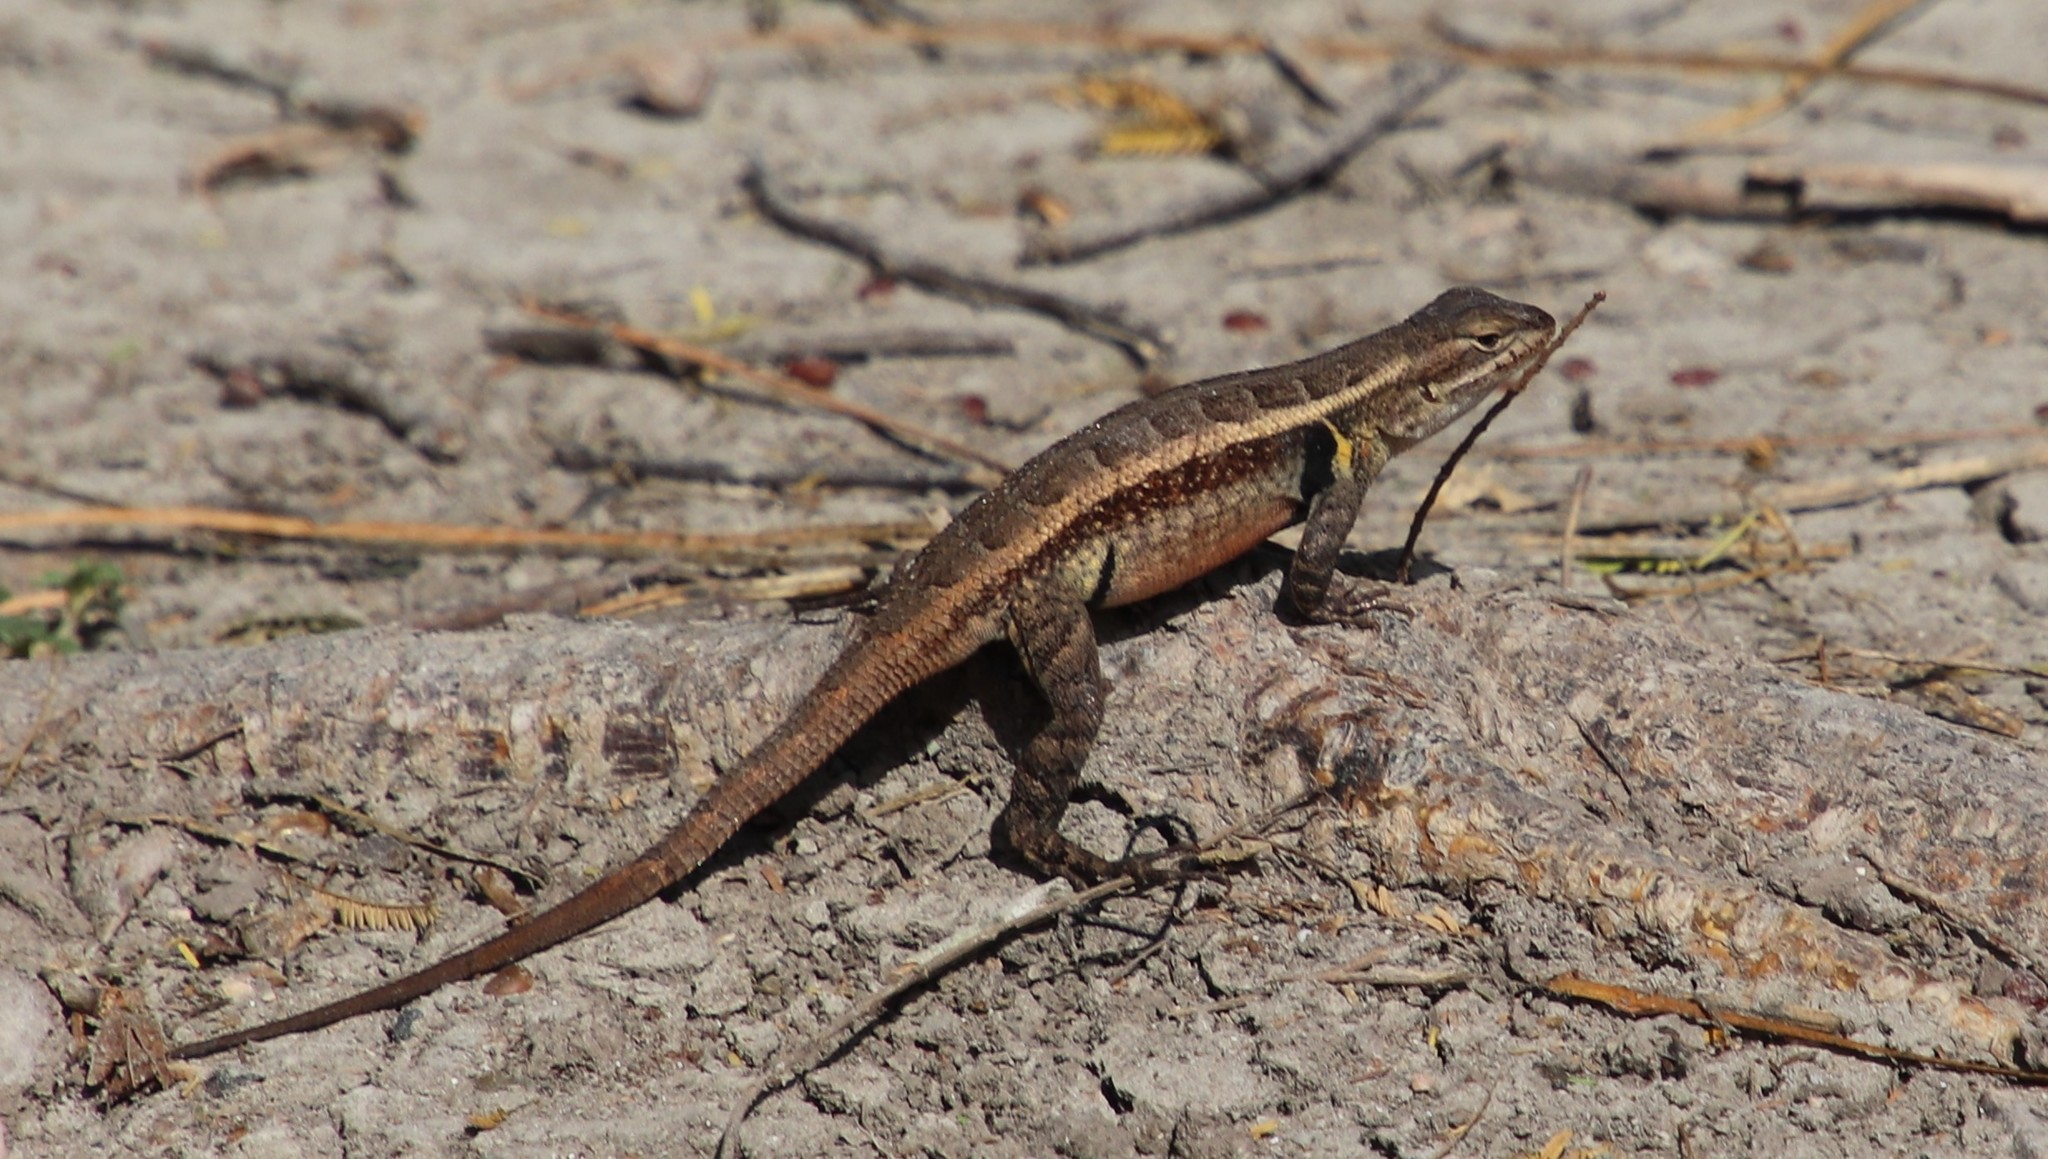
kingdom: Animalia
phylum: Chordata
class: Squamata
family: Phrynosomatidae
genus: Sceloporus
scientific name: Sceloporus variabilis
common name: Rosebelly lizard
